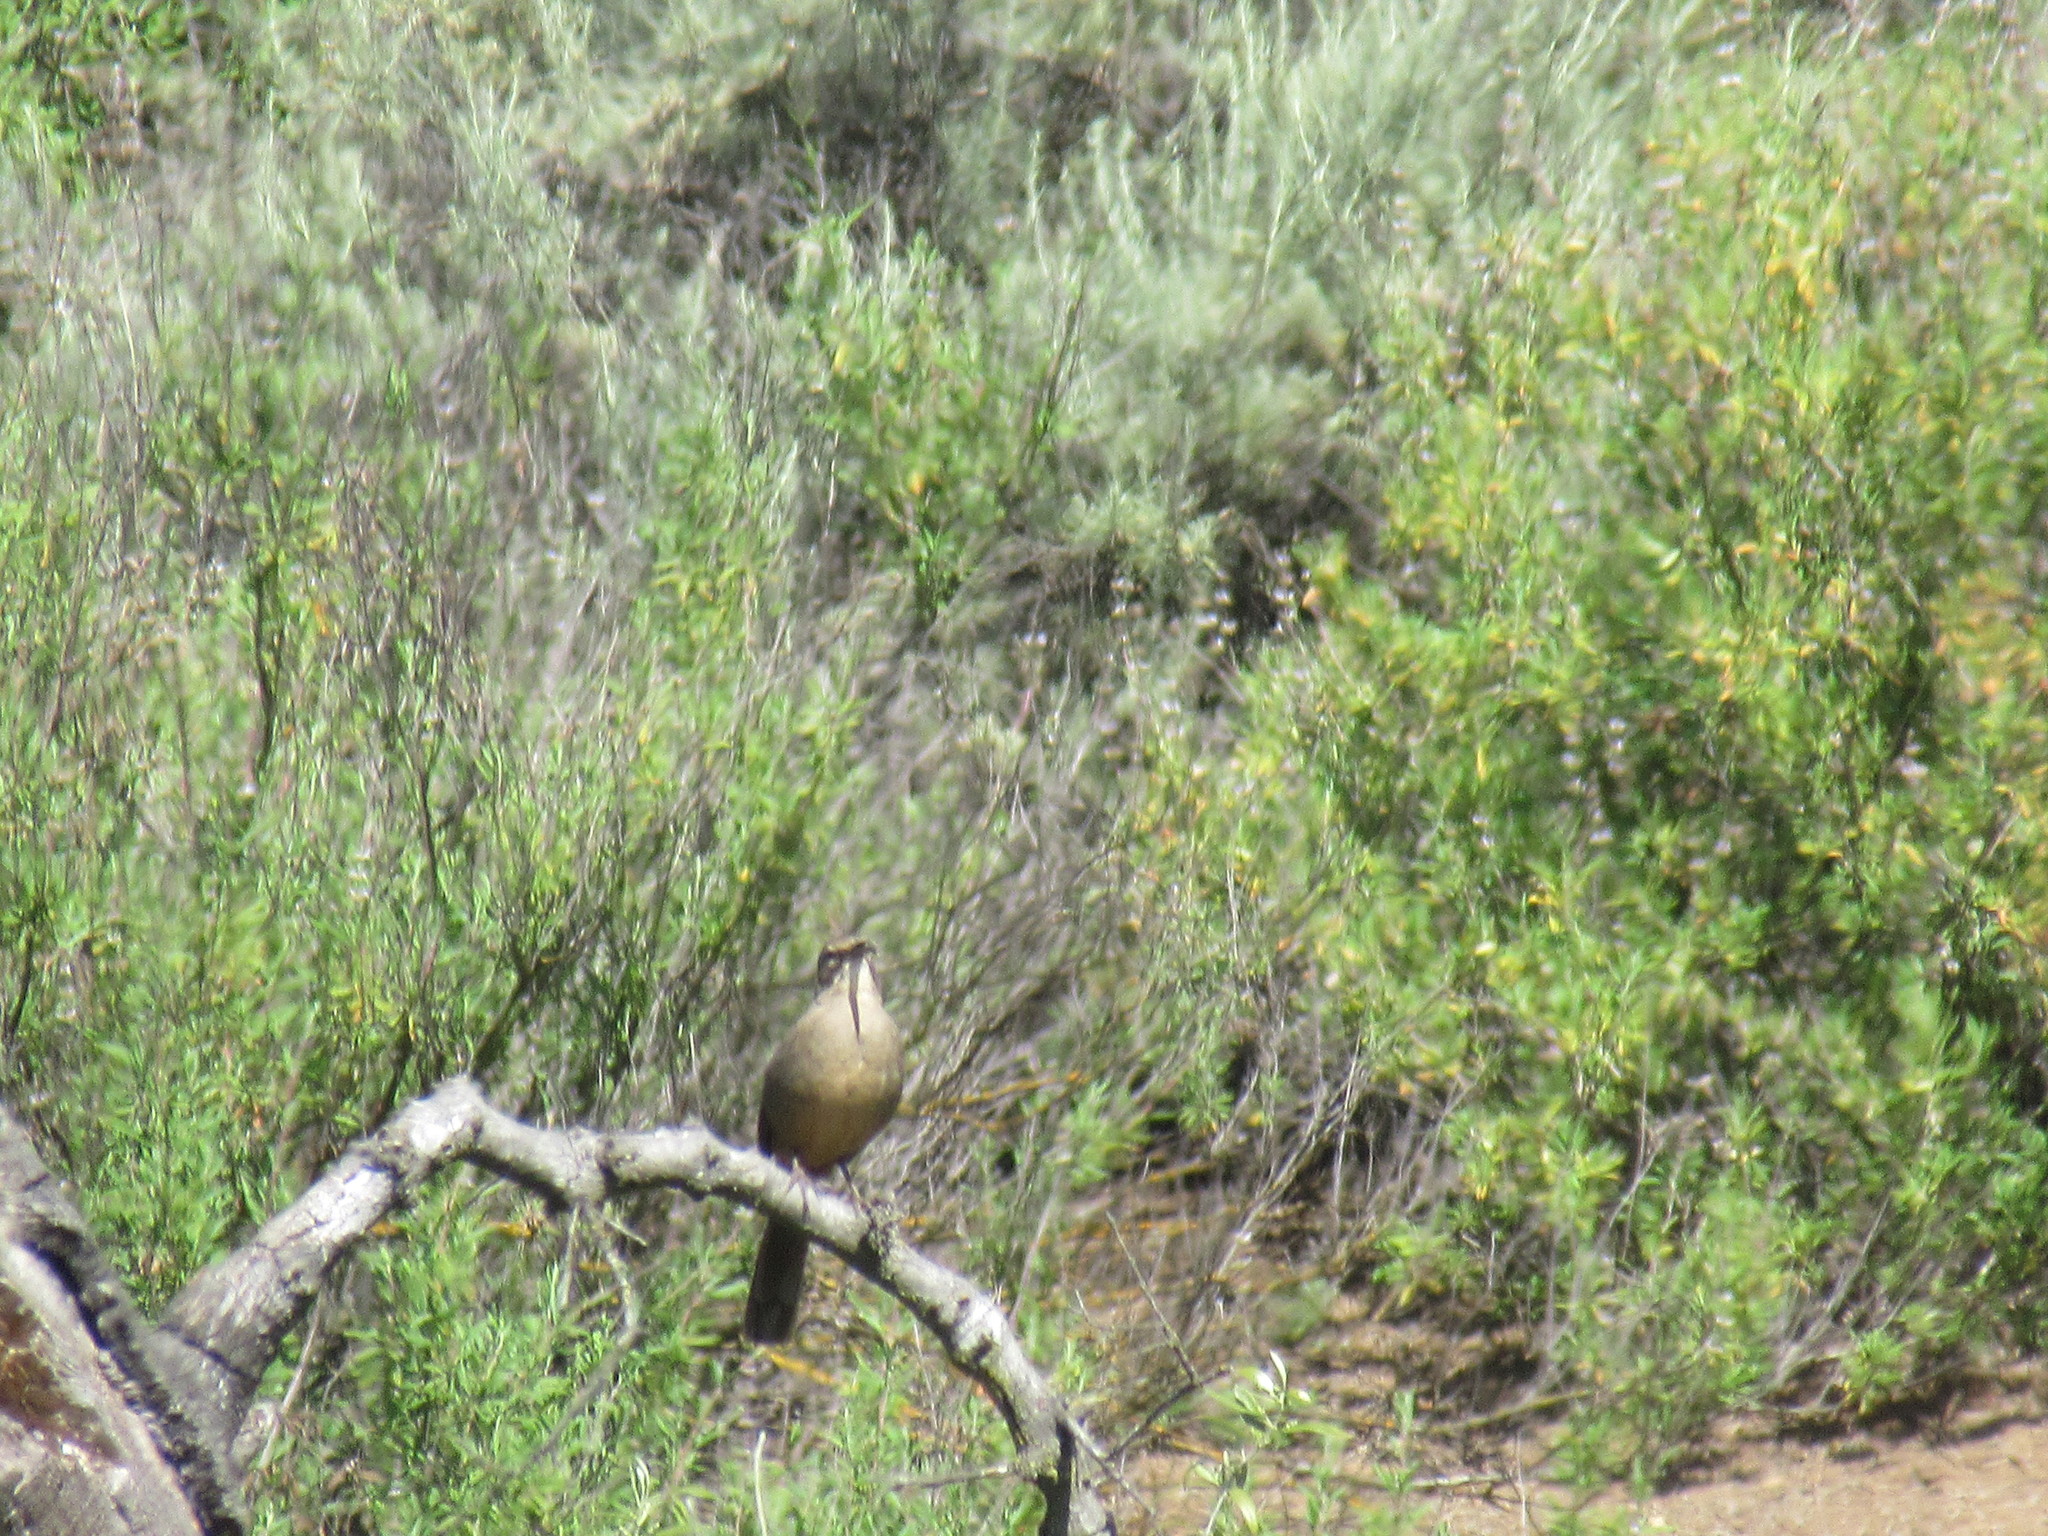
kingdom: Animalia
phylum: Chordata
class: Aves
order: Passeriformes
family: Mimidae
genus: Toxostoma
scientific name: Toxostoma redivivum
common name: California thrasher
